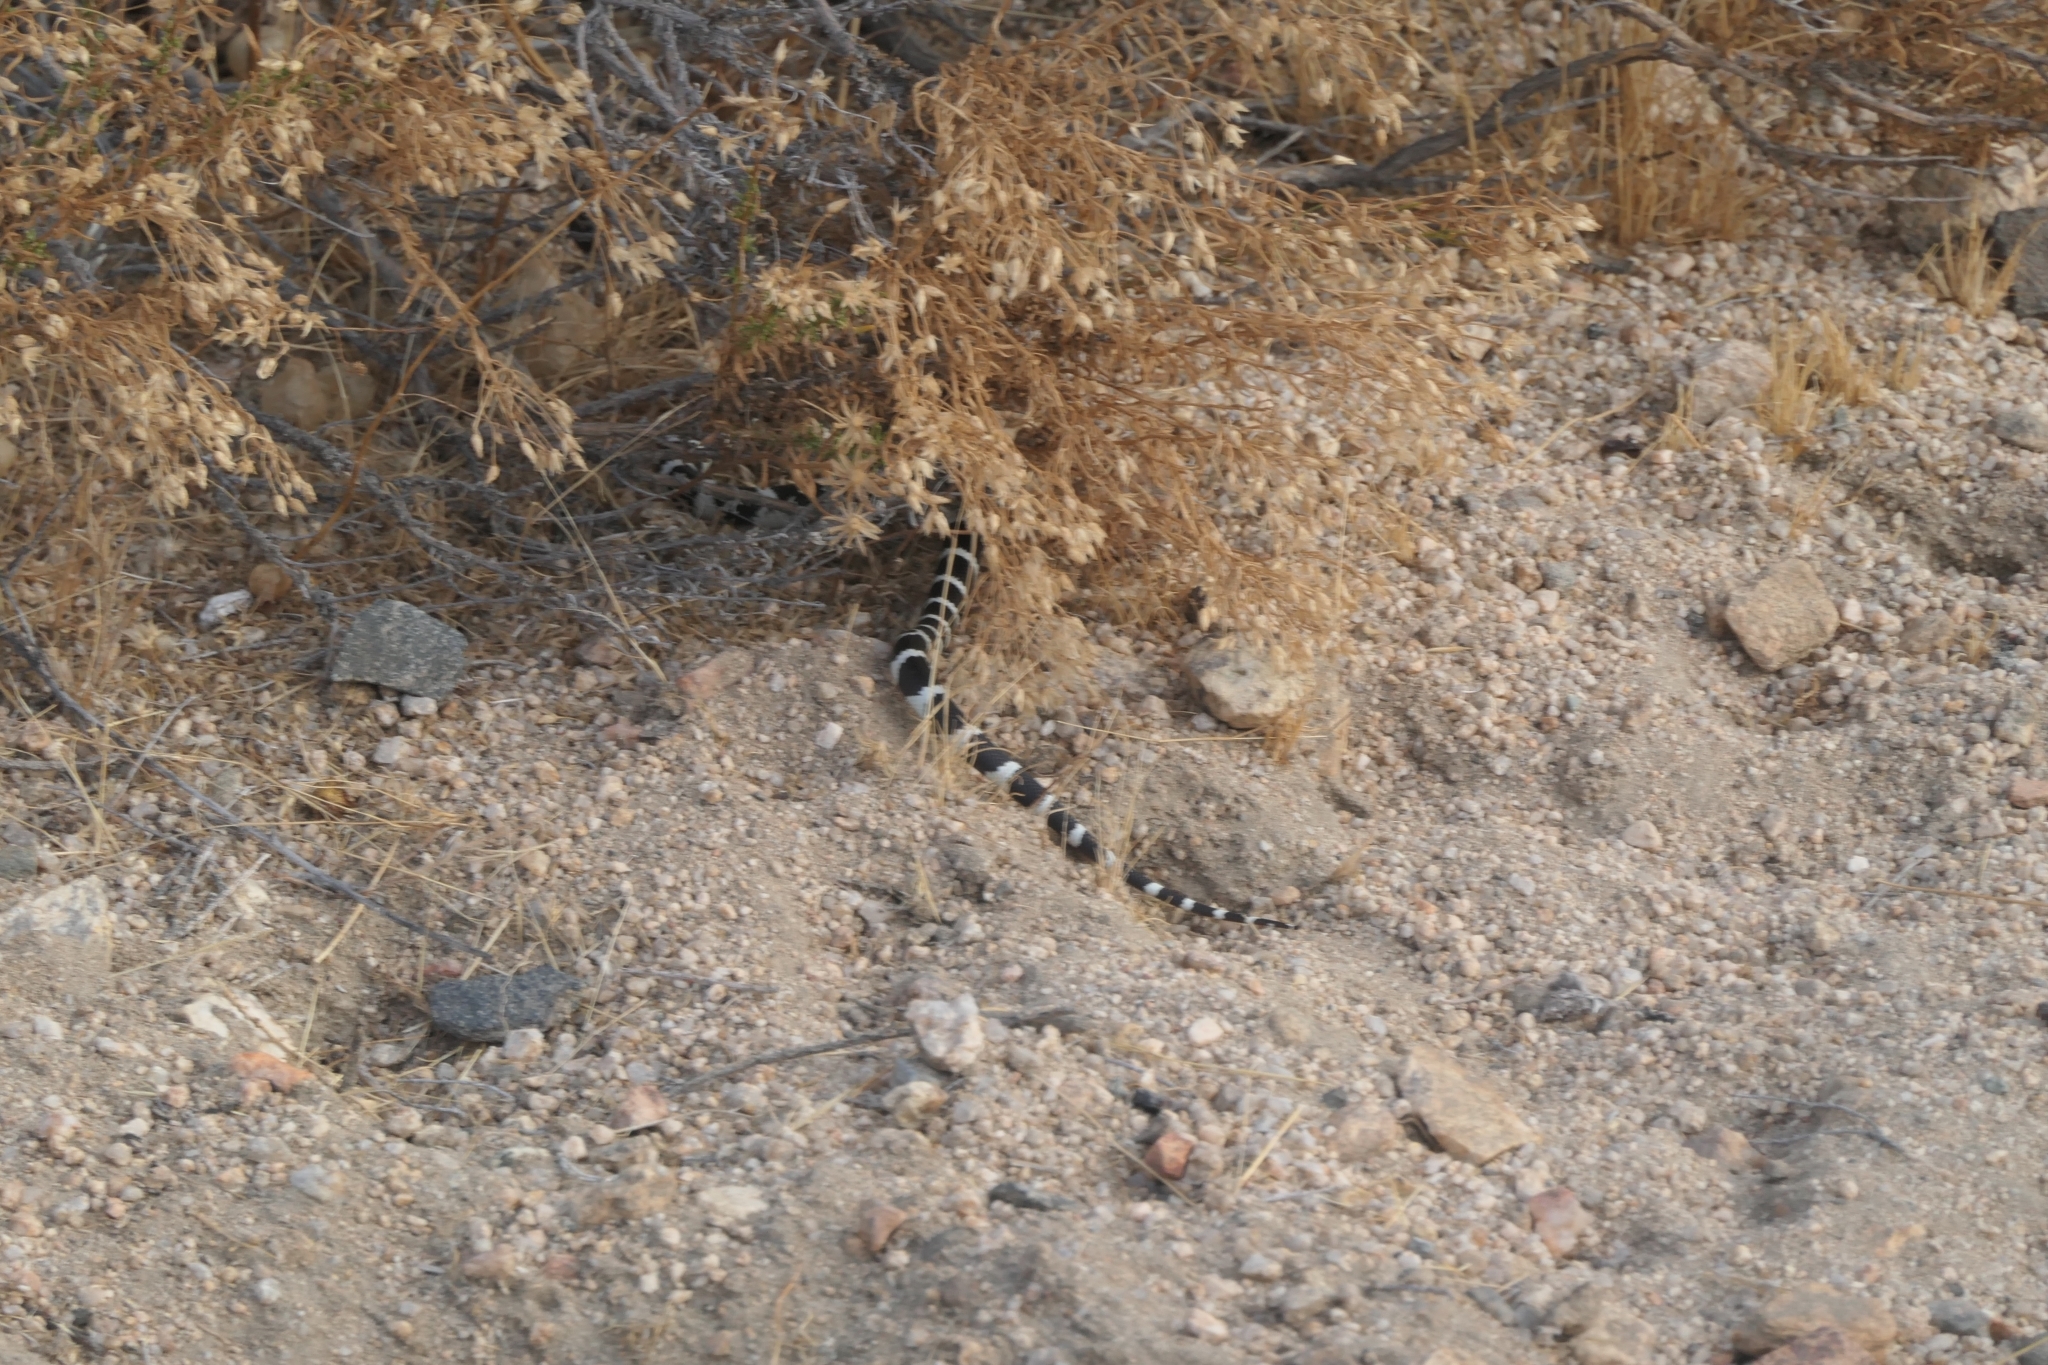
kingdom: Animalia
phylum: Chordata
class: Squamata
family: Colubridae
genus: Lampropeltis
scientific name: Lampropeltis californiae
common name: California kingsnake
